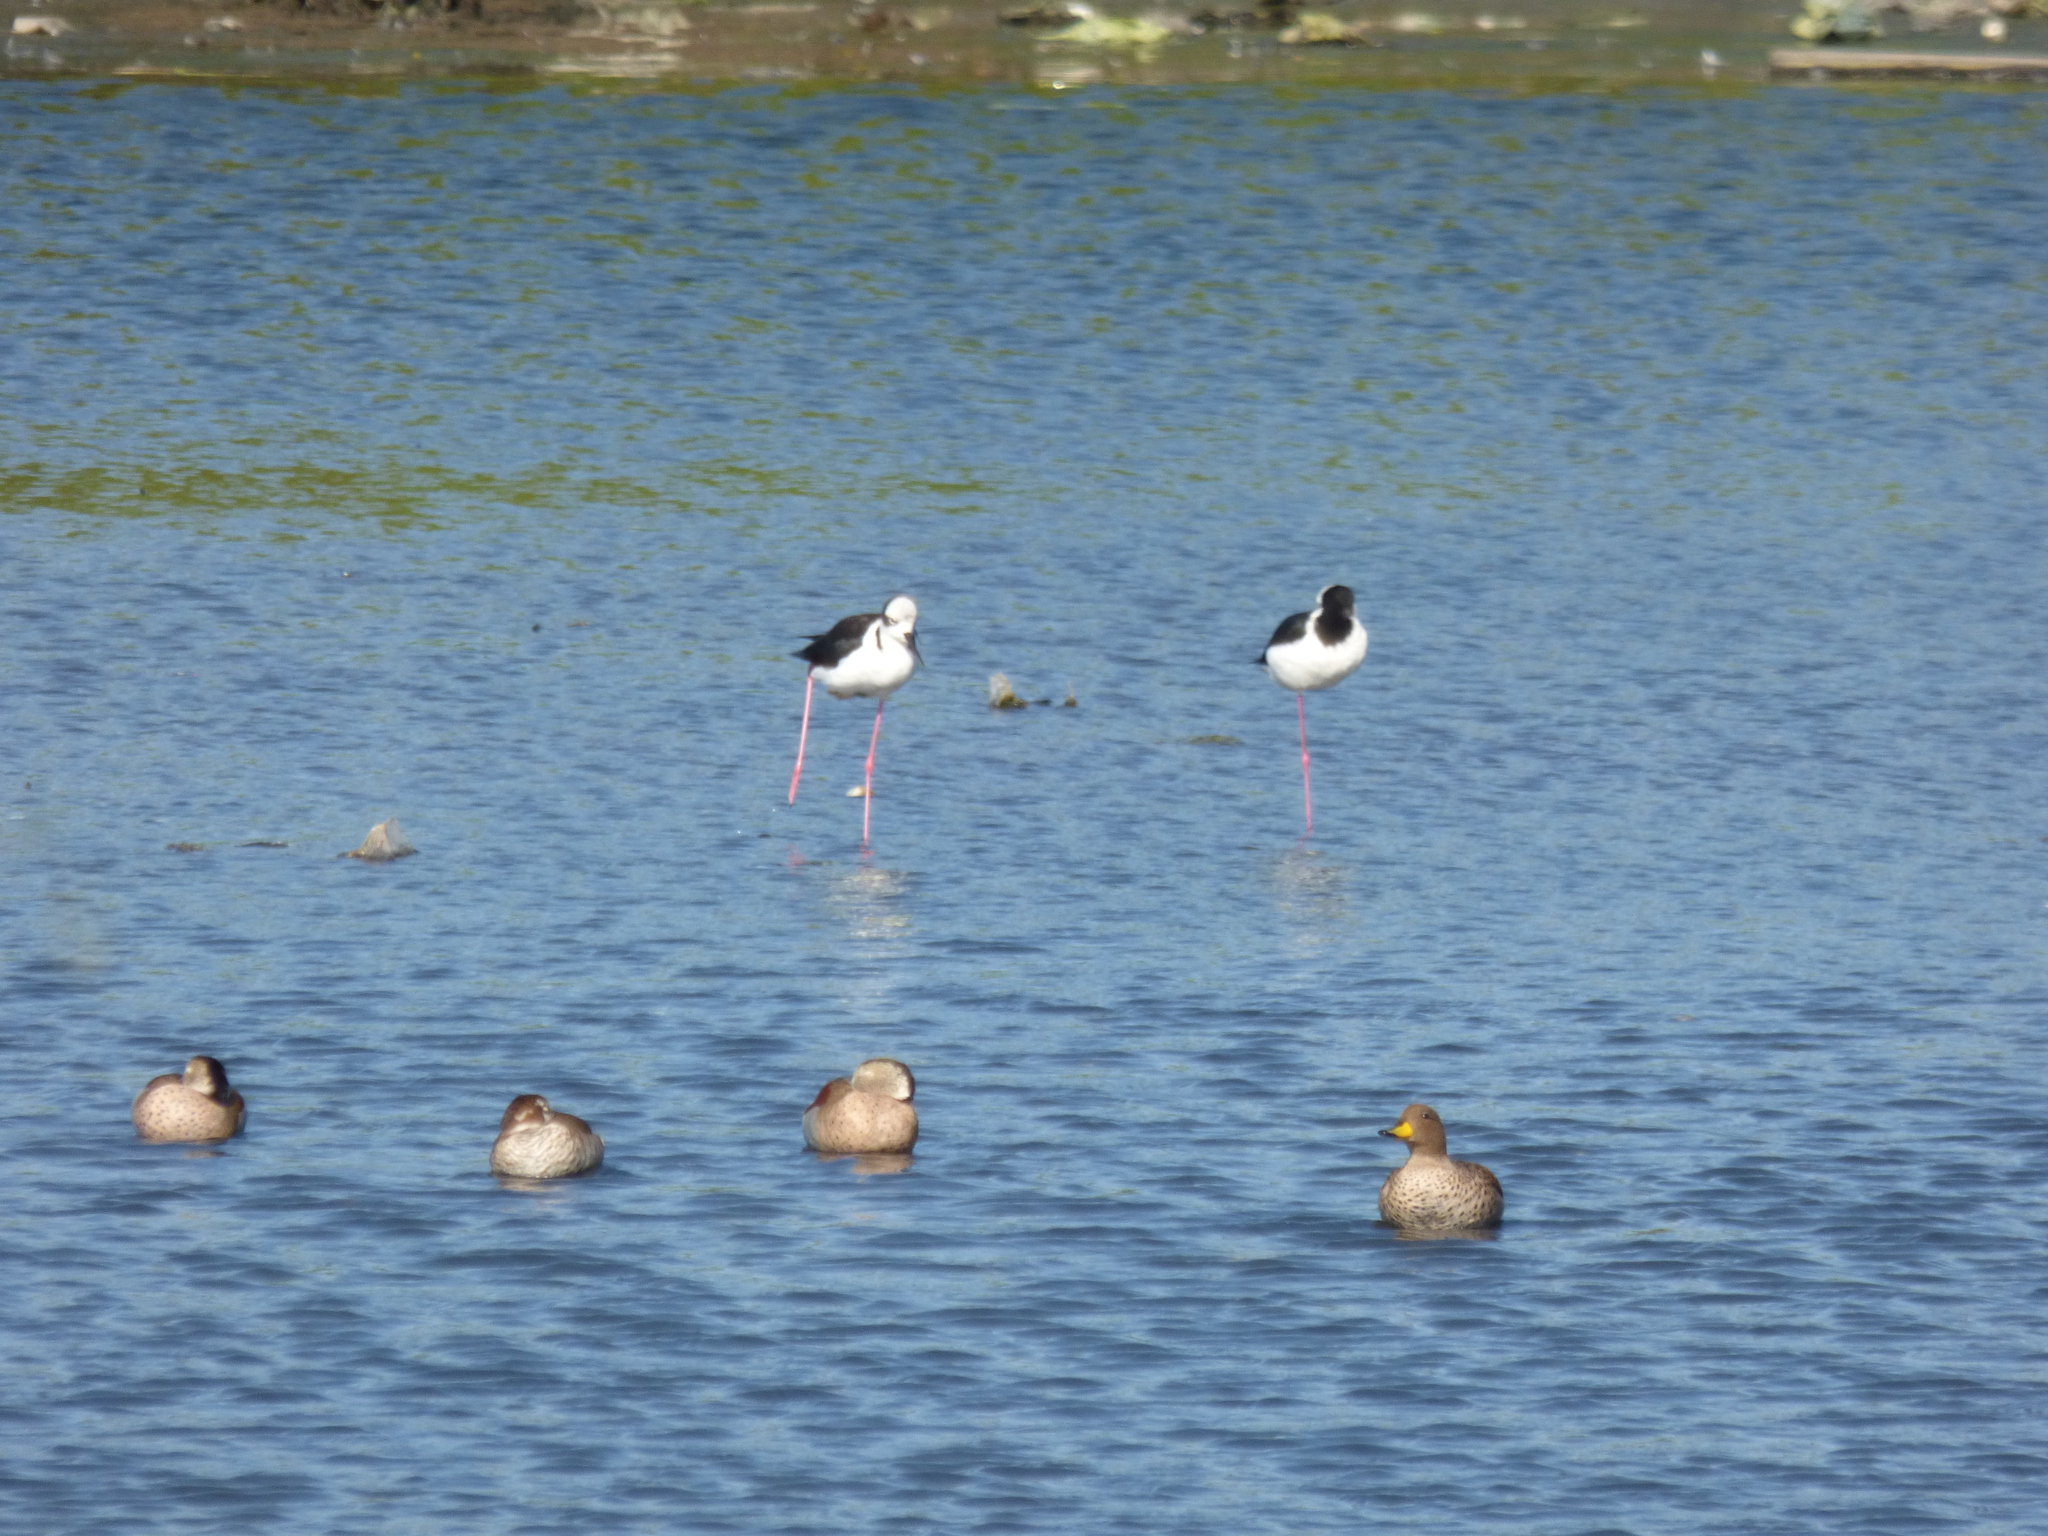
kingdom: Animalia
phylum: Chordata
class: Aves
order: Charadriiformes
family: Recurvirostridae
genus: Himantopus
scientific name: Himantopus mexicanus
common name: Black-necked stilt
